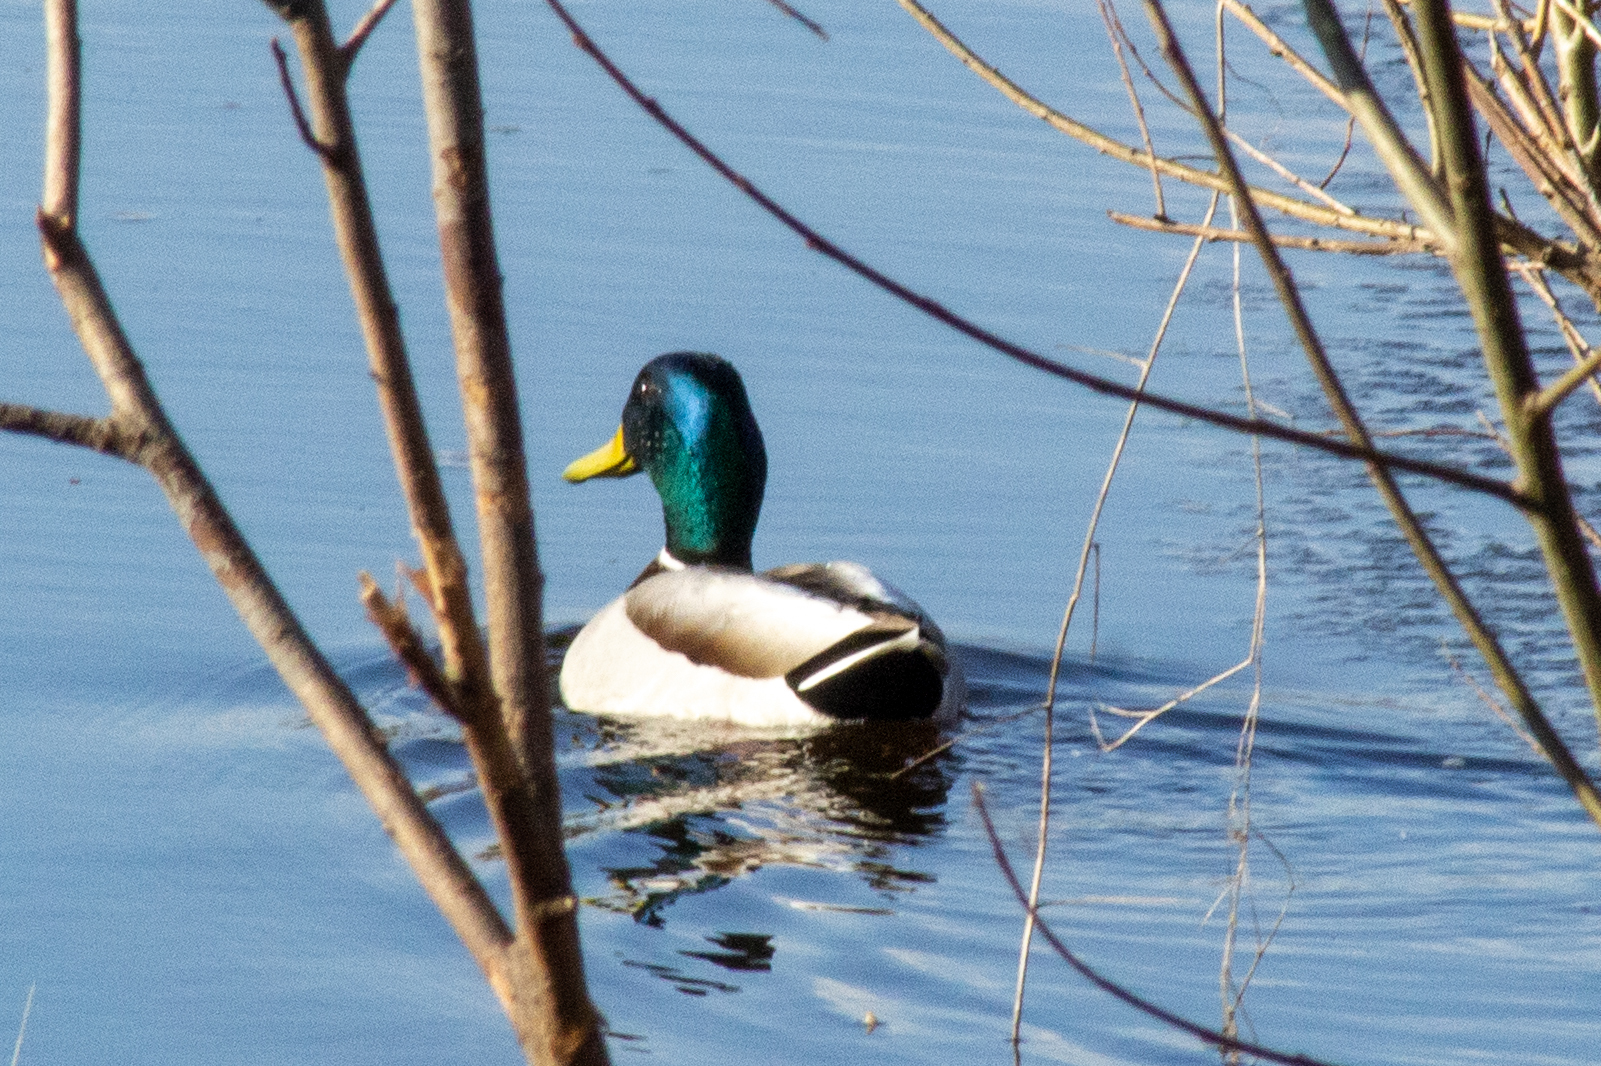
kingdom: Animalia
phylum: Chordata
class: Aves
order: Anseriformes
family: Anatidae
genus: Anas
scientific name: Anas platyrhynchos
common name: Mallard
